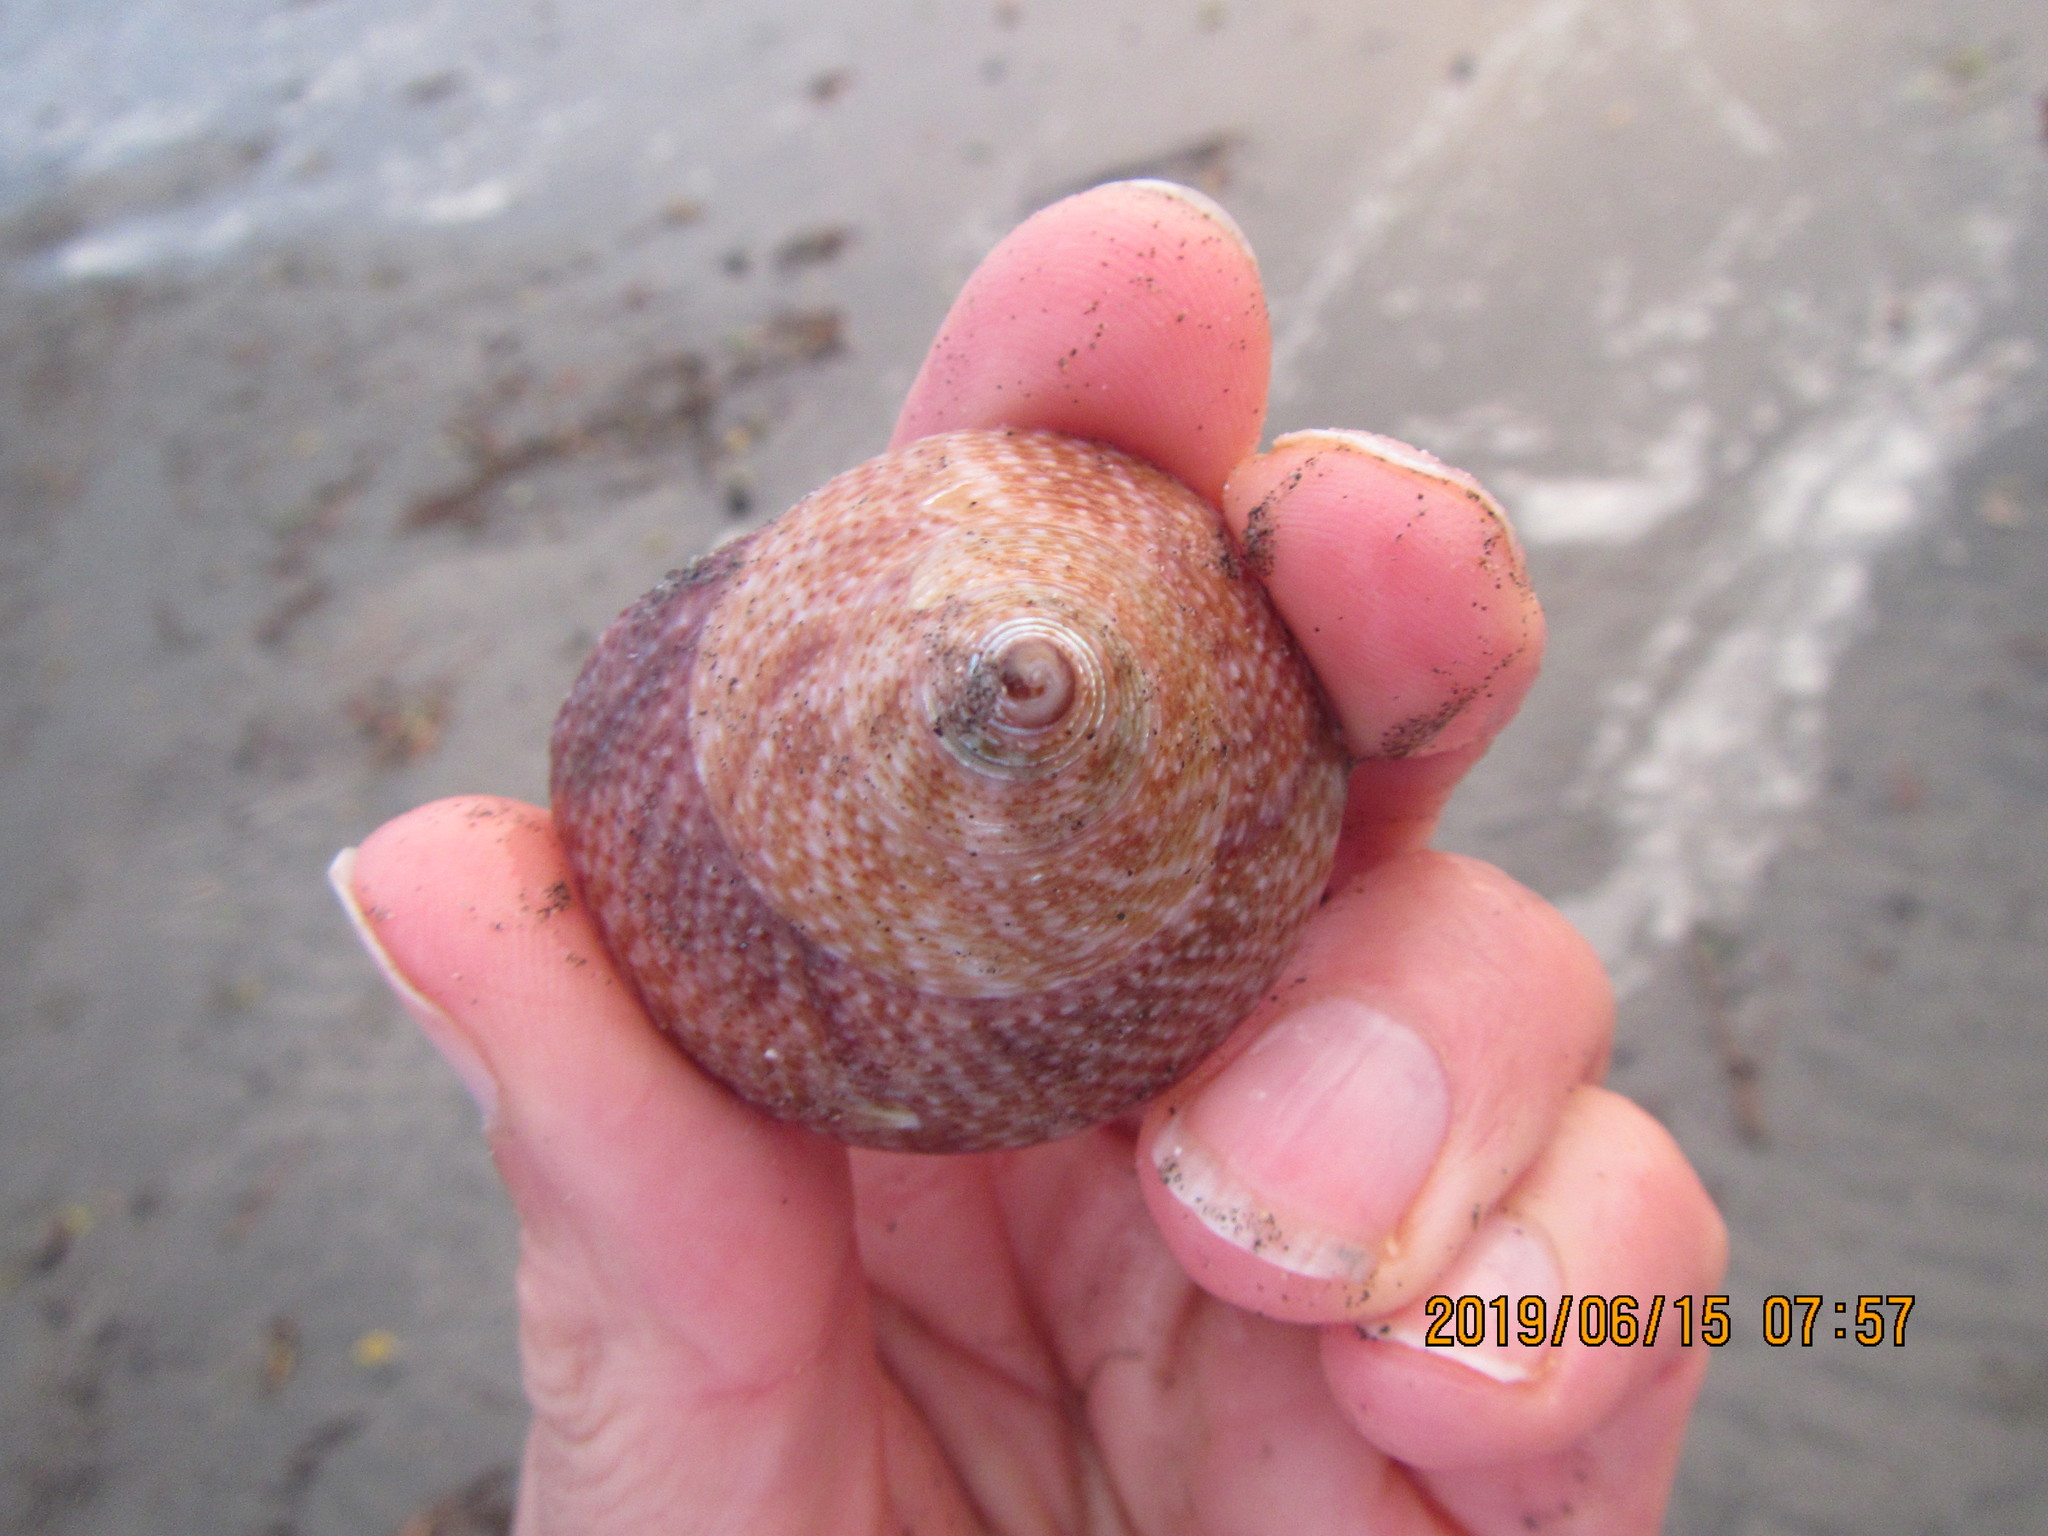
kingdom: Animalia
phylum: Mollusca
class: Gastropoda
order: Trochida
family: Calliostomatidae
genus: Maurea
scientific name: Maurea selecta
